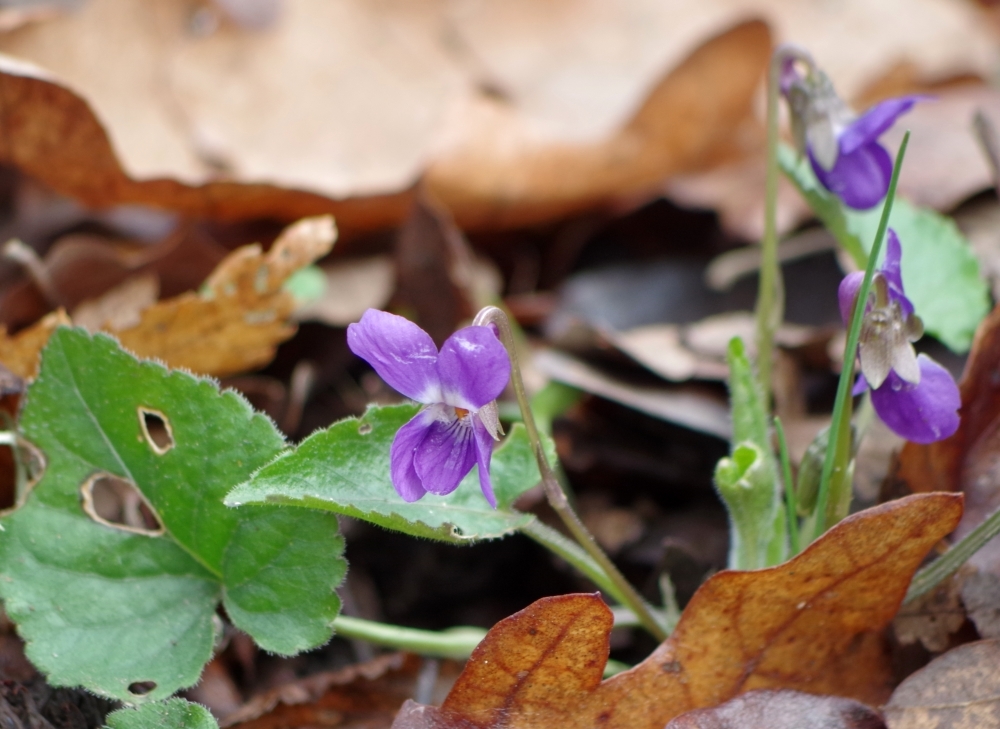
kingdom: Plantae
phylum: Tracheophyta
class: Magnoliopsida
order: Malpighiales
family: Violaceae
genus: Viola
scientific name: Viola odorata
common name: Sweet violet
